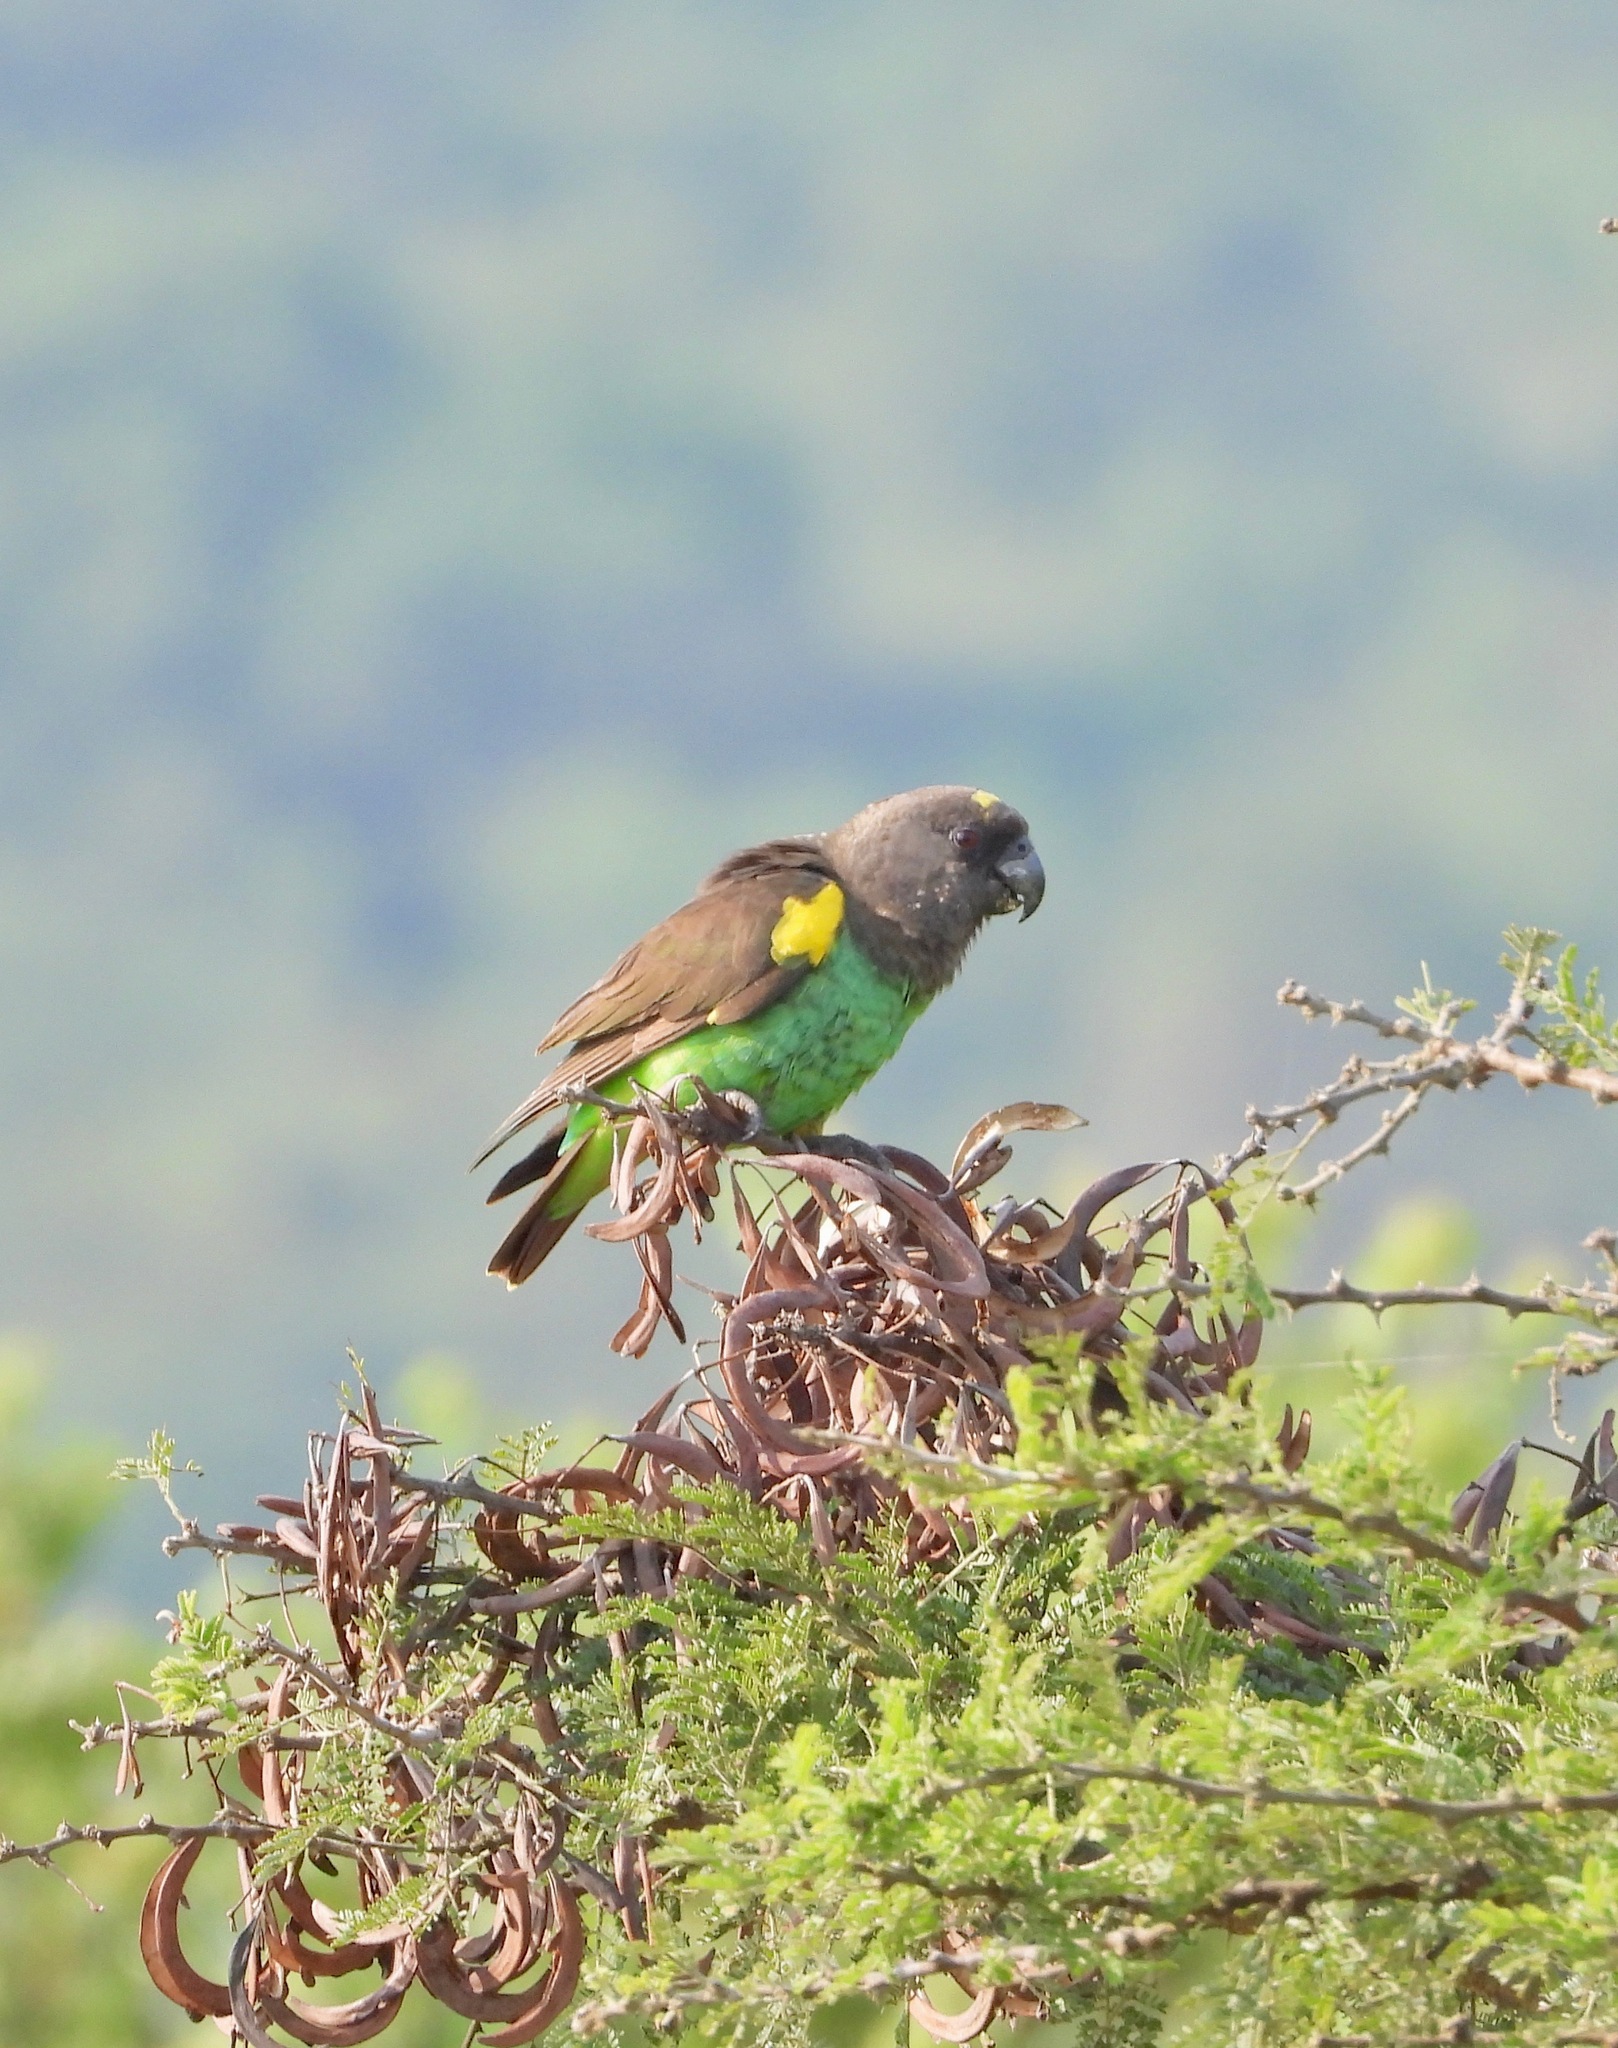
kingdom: Animalia
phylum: Chordata
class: Aves
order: Psittaciformes
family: Psittacidae
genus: Poicephalus
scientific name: Poicephalus meyeri
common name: Meyer's parrot
